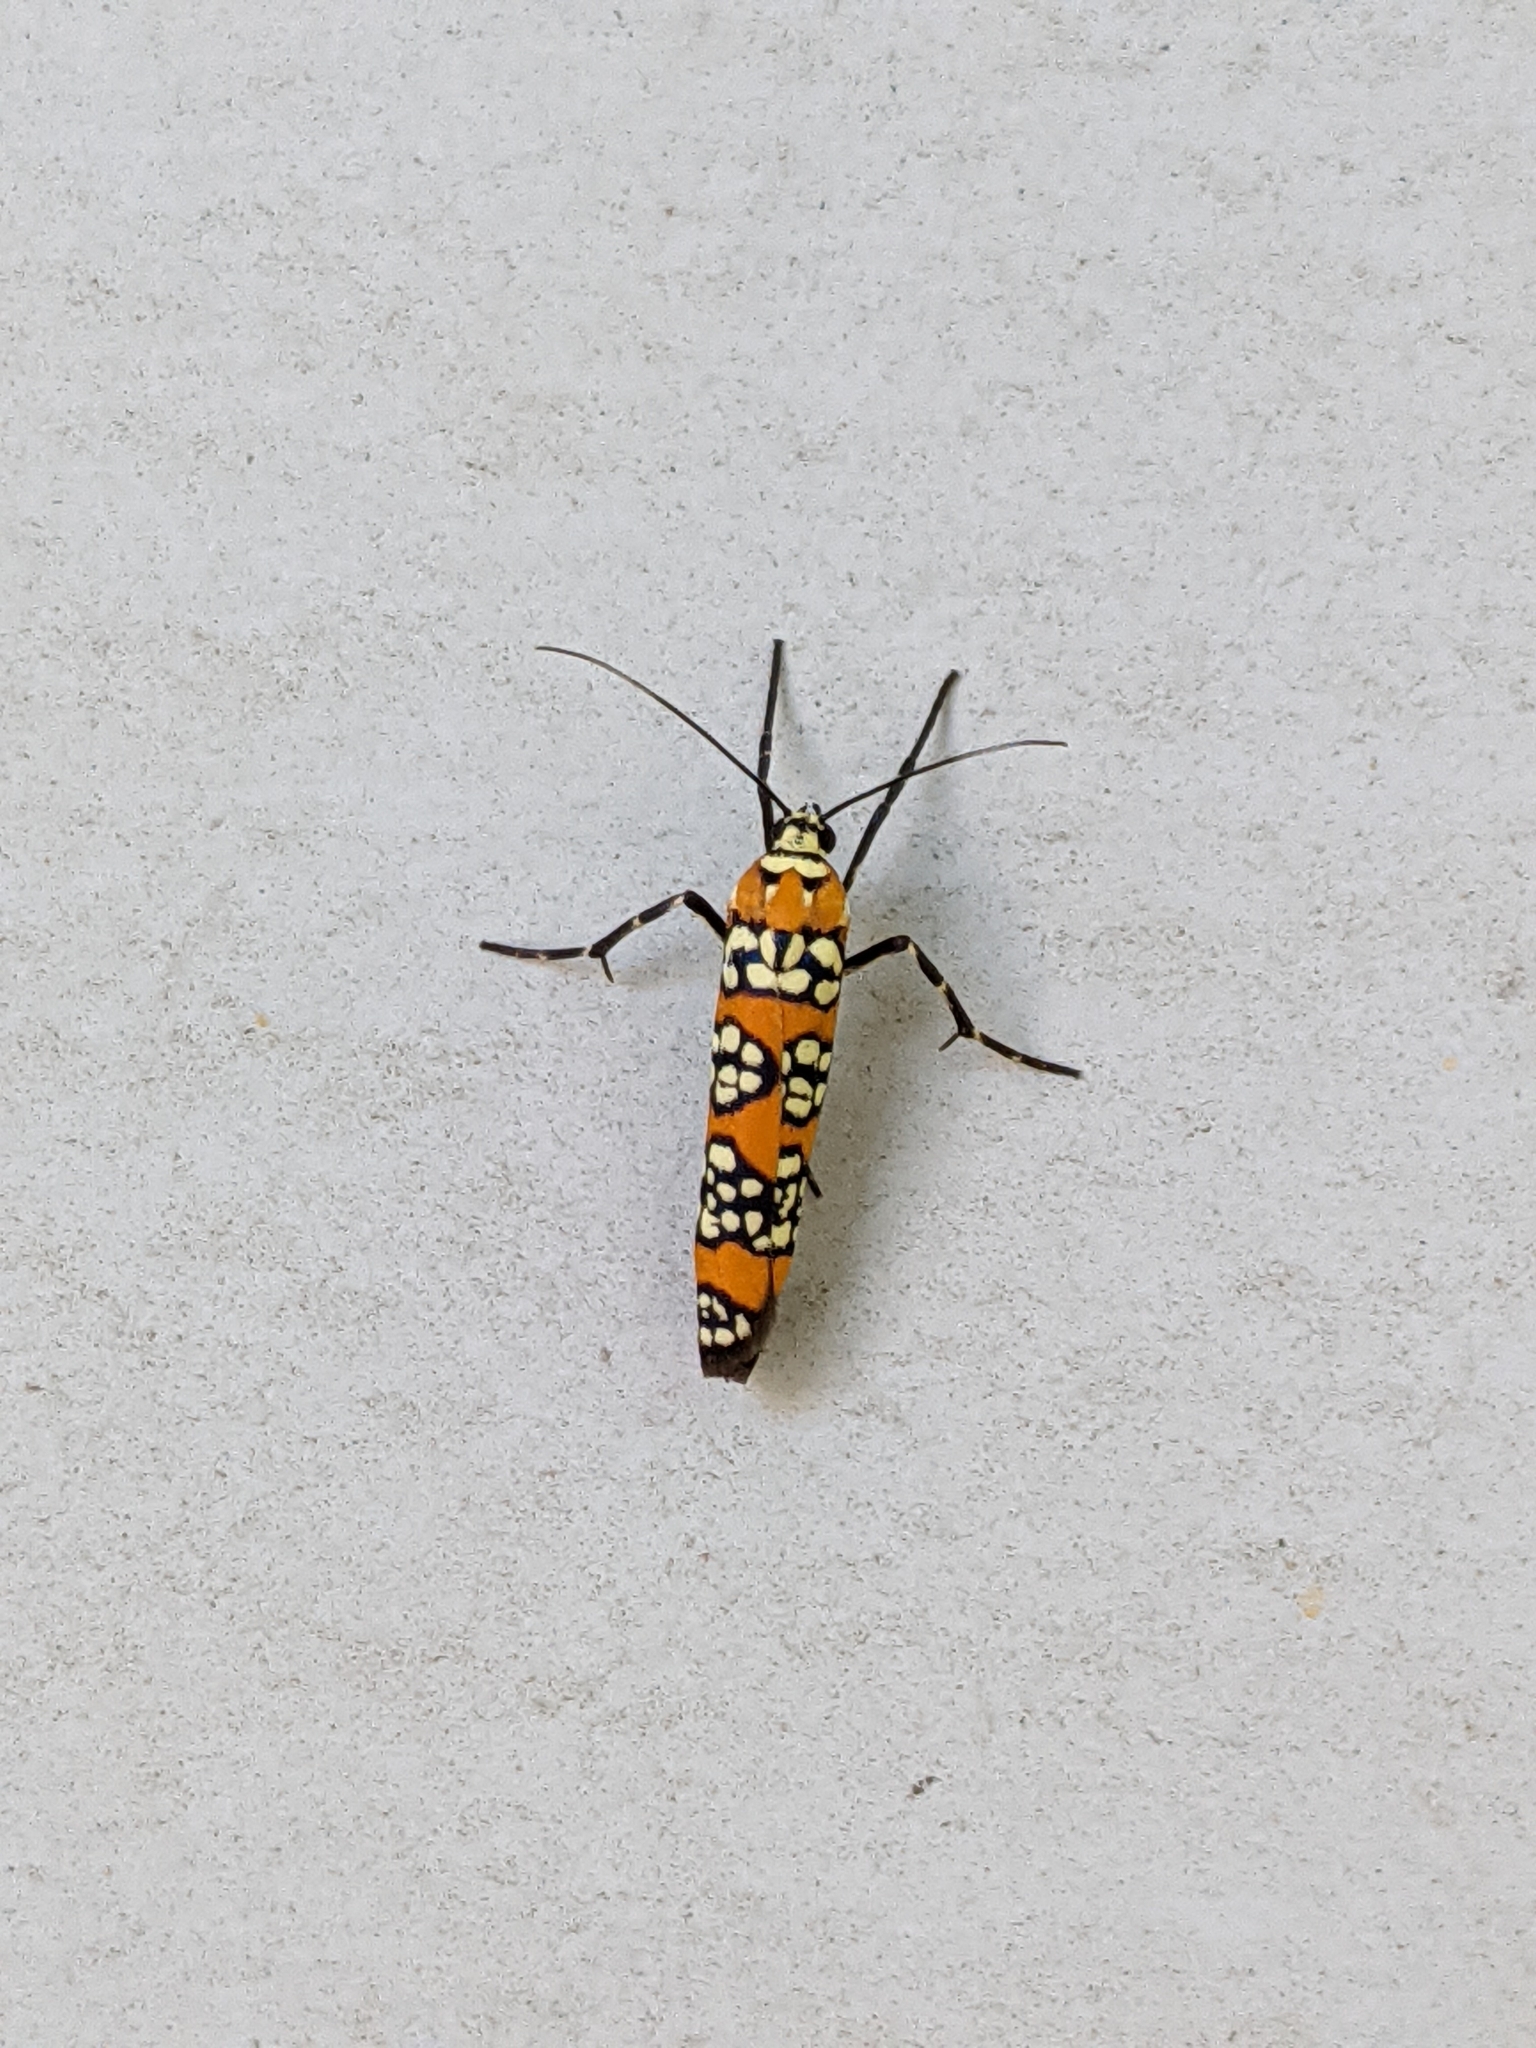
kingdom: Animalia
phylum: Arthropoda
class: Insecta
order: Lepidoptera
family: Attevidae
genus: Atteva
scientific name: Atteva punctella
